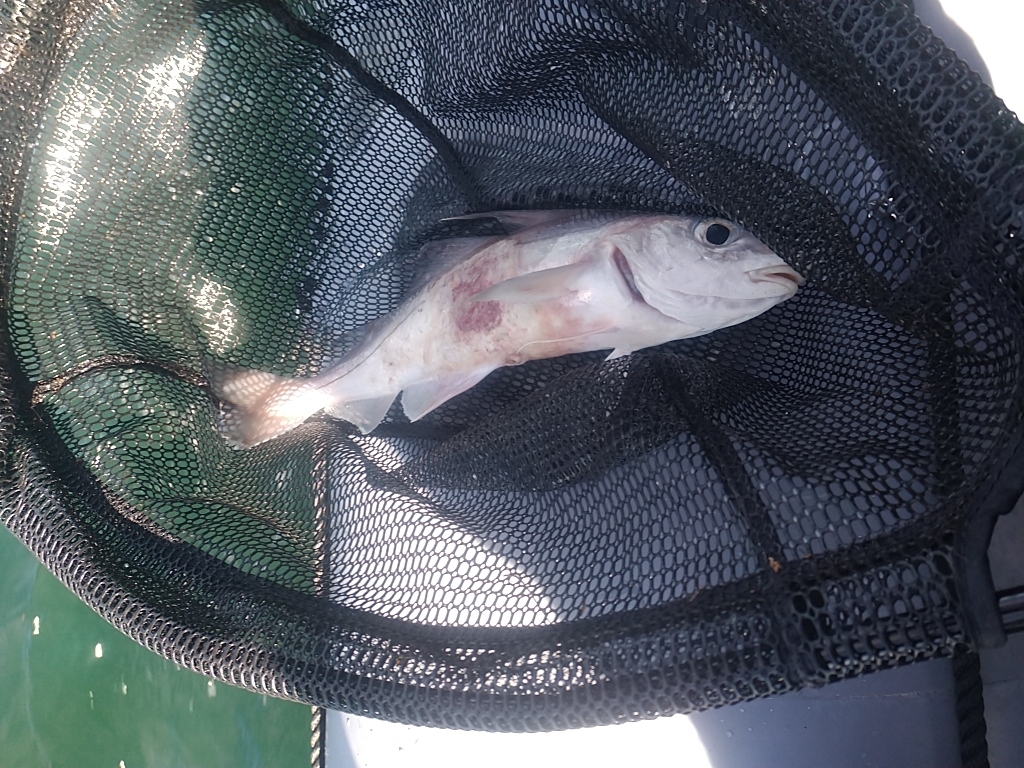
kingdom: Animalia
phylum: Chordata
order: Gadiformes
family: Gadidae
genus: Melanogrammus
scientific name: Melanogrammus aeglefinus
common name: Haddock
